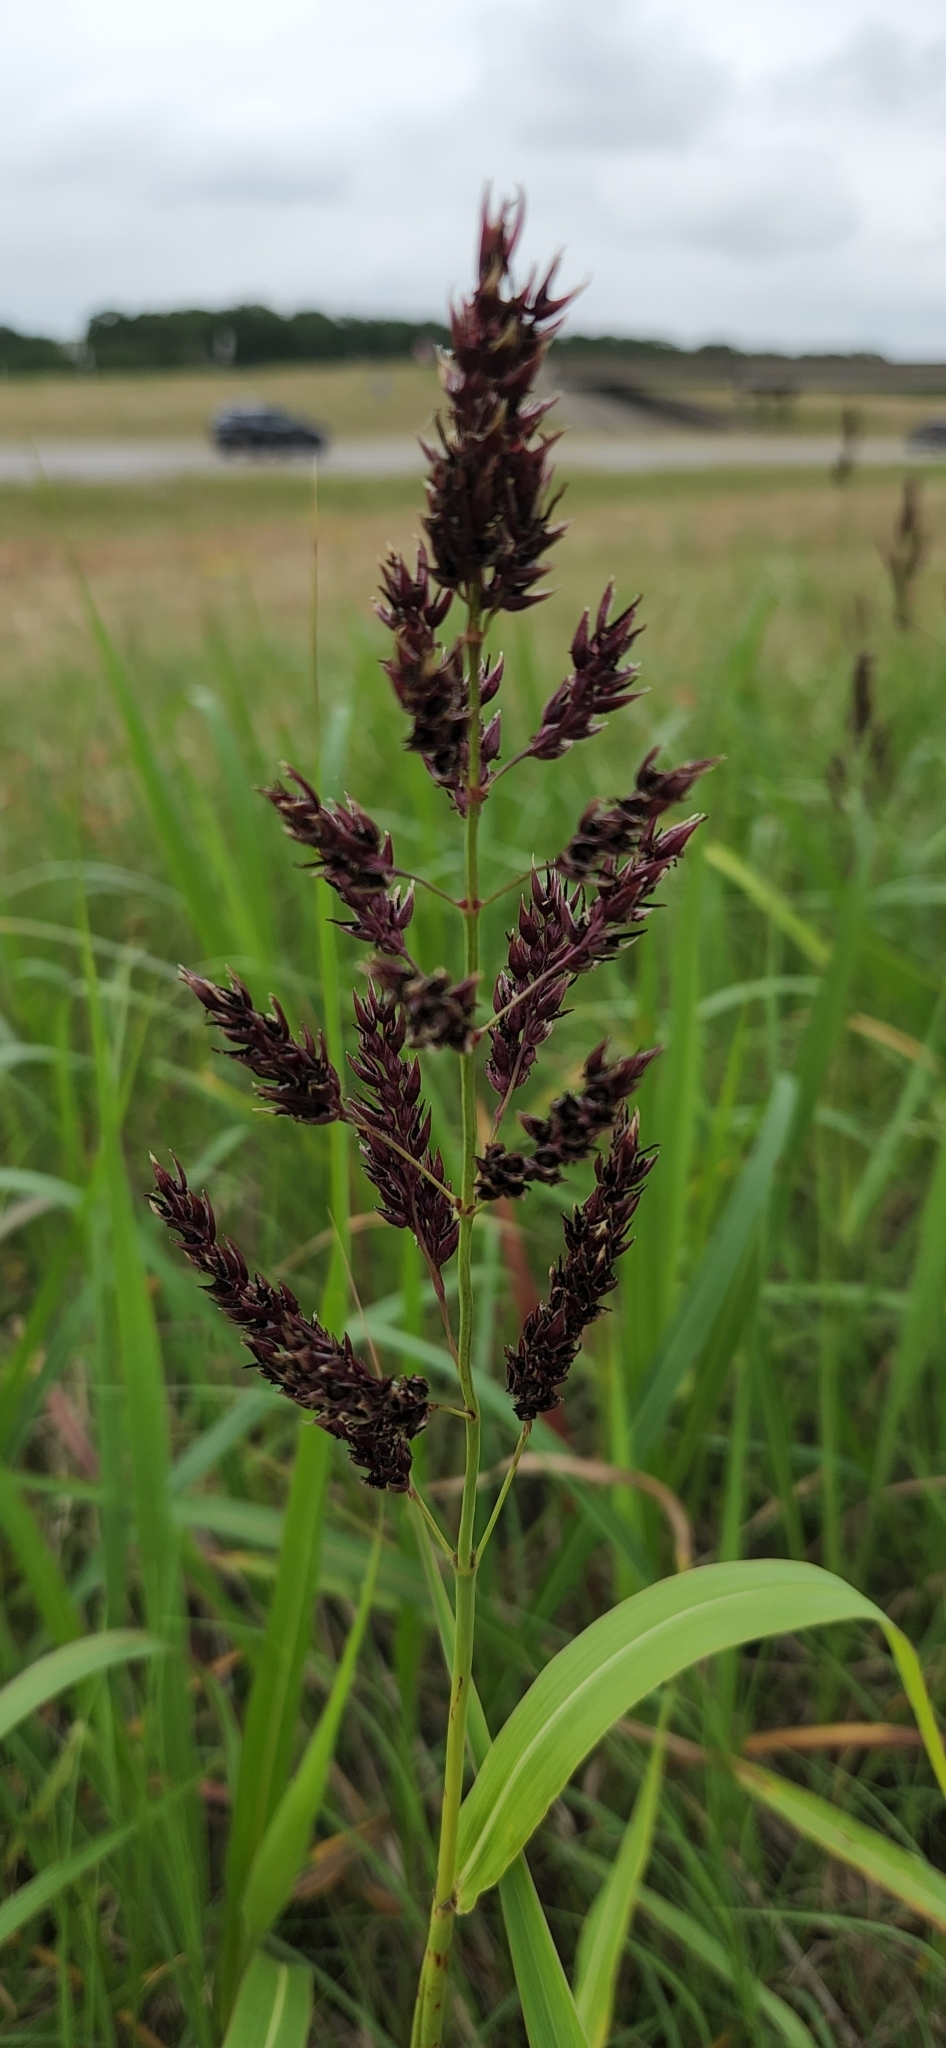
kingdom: Plantae
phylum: Tracheophyta
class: Liliopsida
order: Poales
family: Poaceae
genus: Sorghum
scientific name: Sorghum halepense
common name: Johnson-grass
